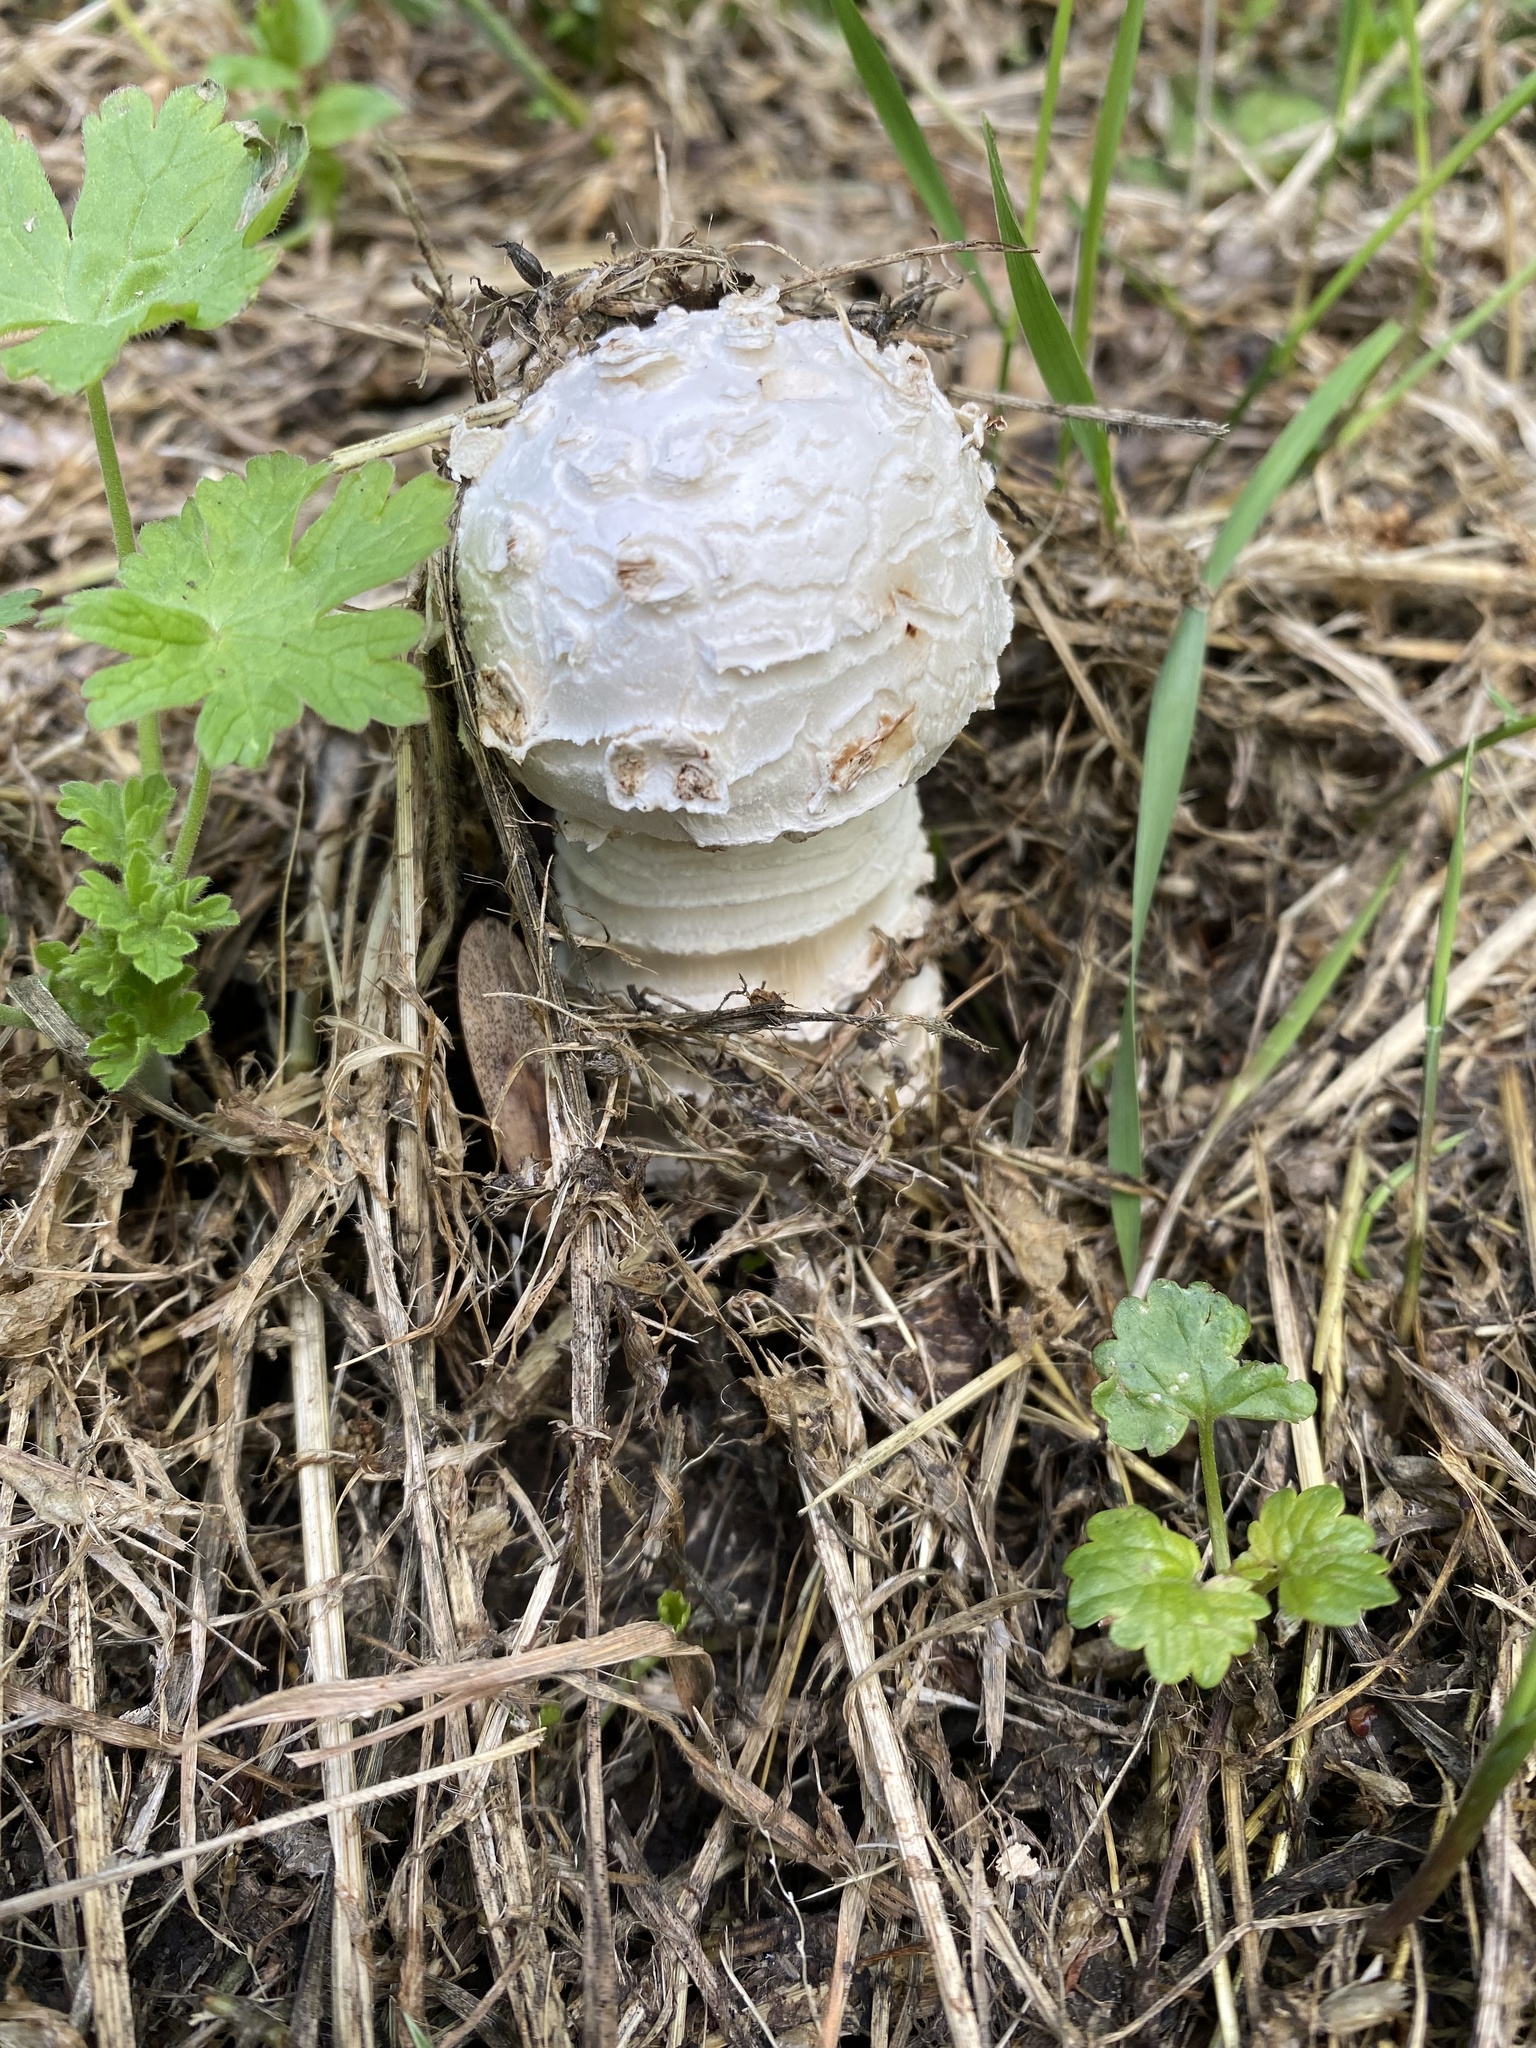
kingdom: Fungi
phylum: Basidiomycota
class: Agaricomycetes
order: Agaricales
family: Amanitaceae
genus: Amanita
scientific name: Amanita vittadinii
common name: Barefoot amanita
